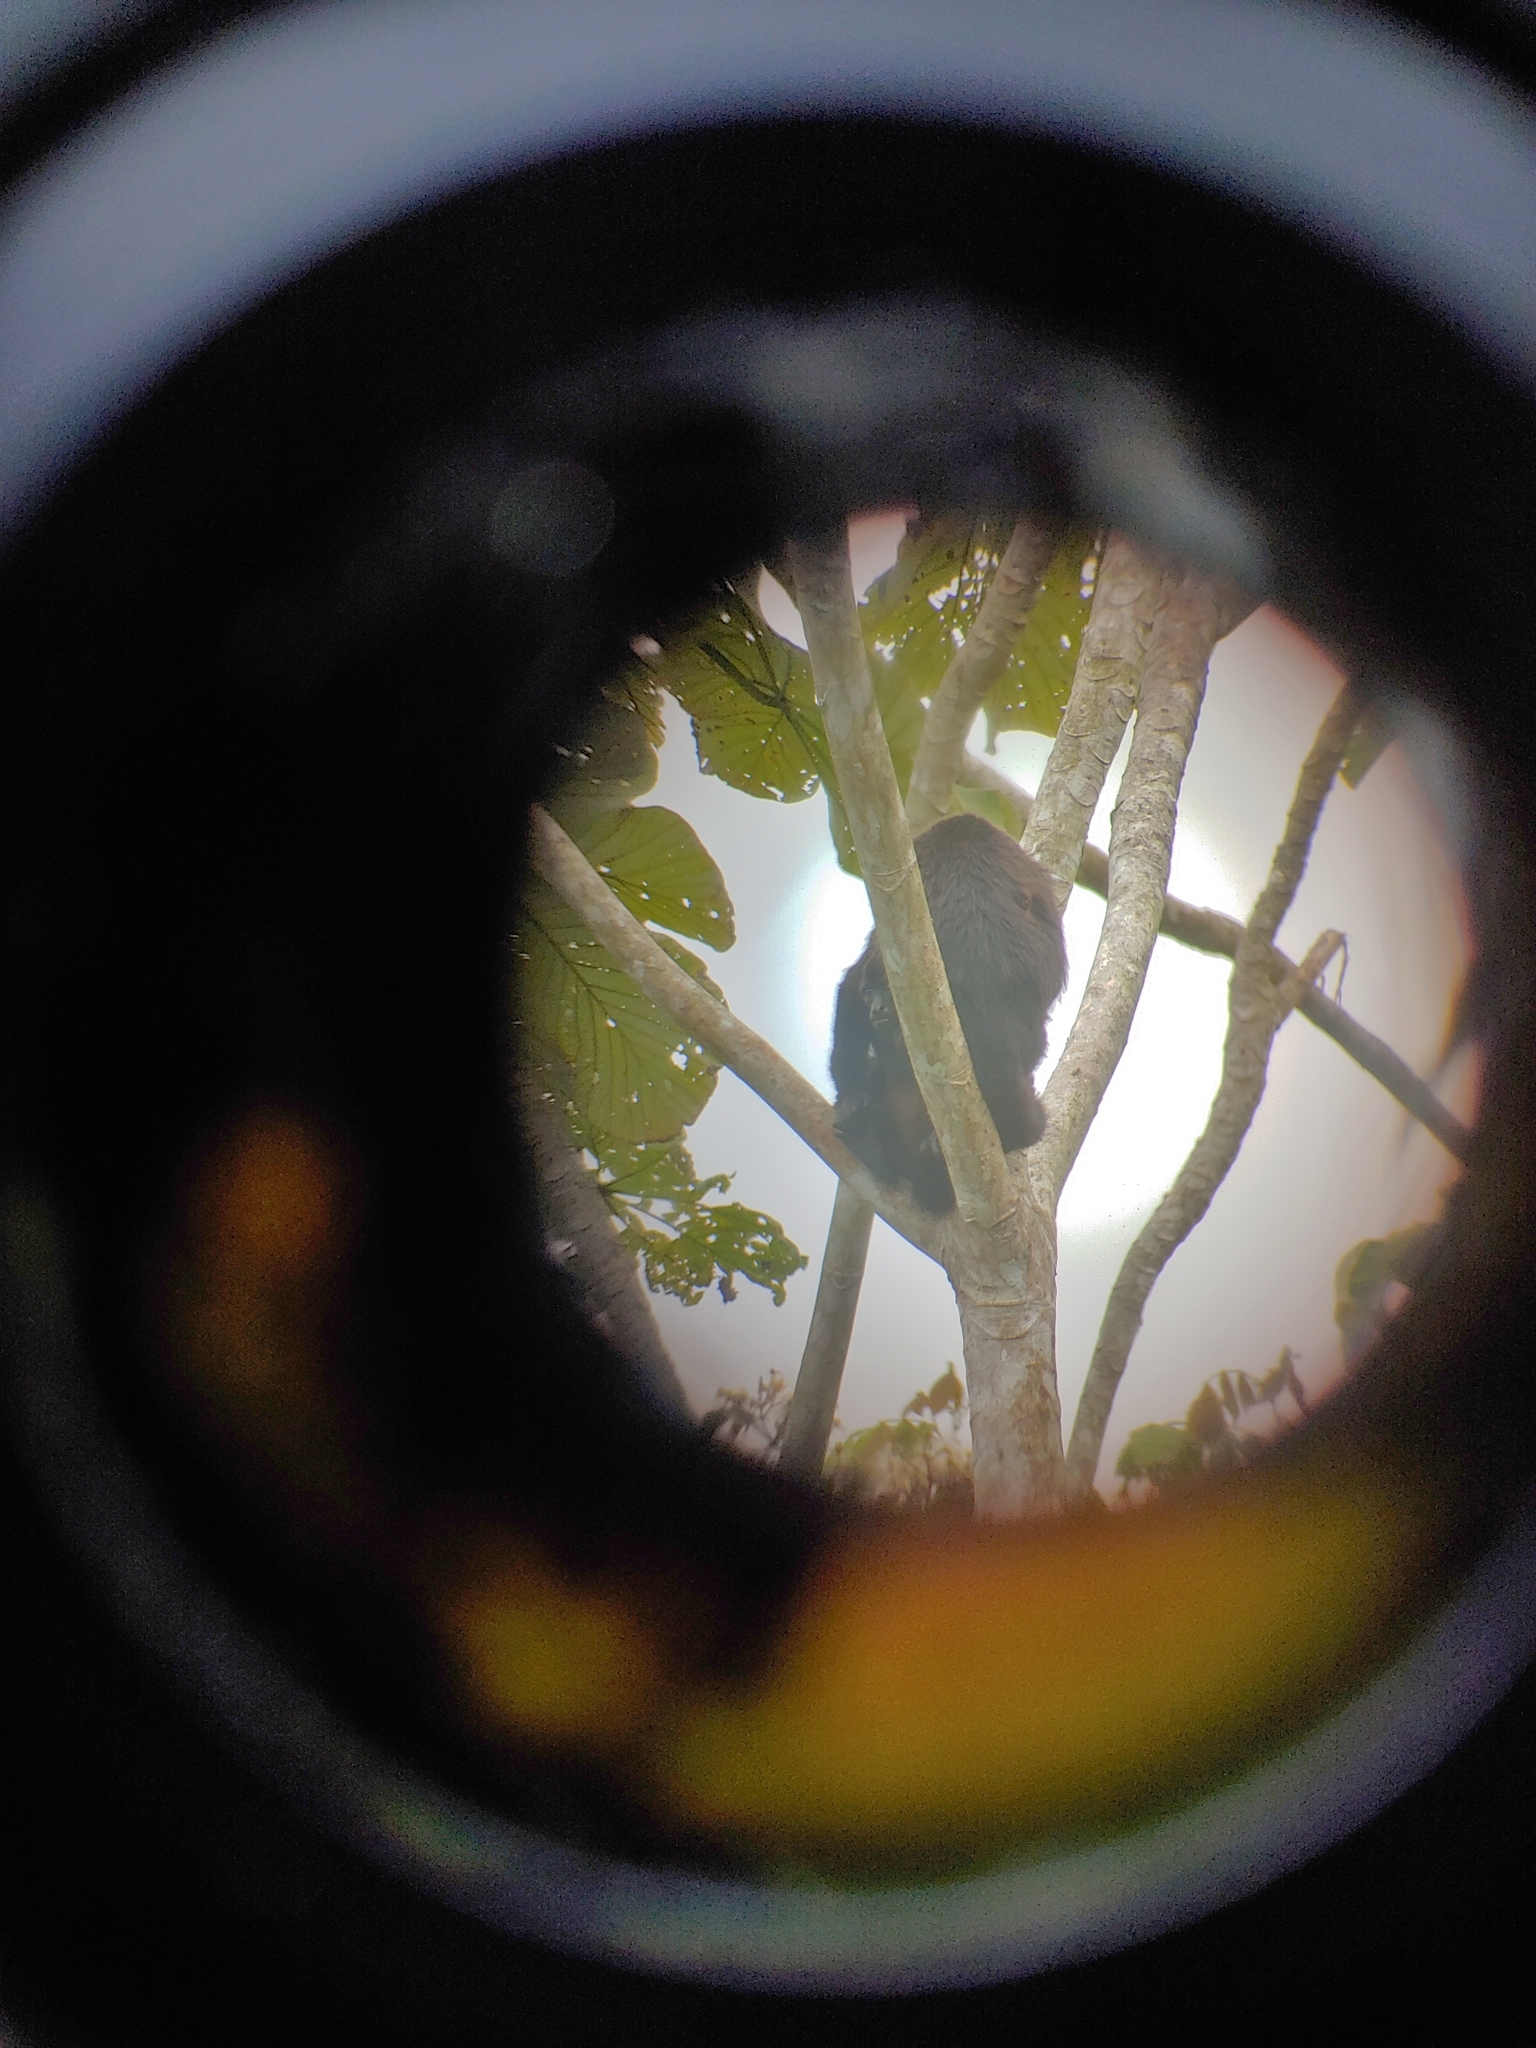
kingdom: Animalia
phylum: Chordata
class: Mammalia
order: Primates
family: Atelidae
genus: Alouatta
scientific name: Alouatta palliata
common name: Mantled howler
